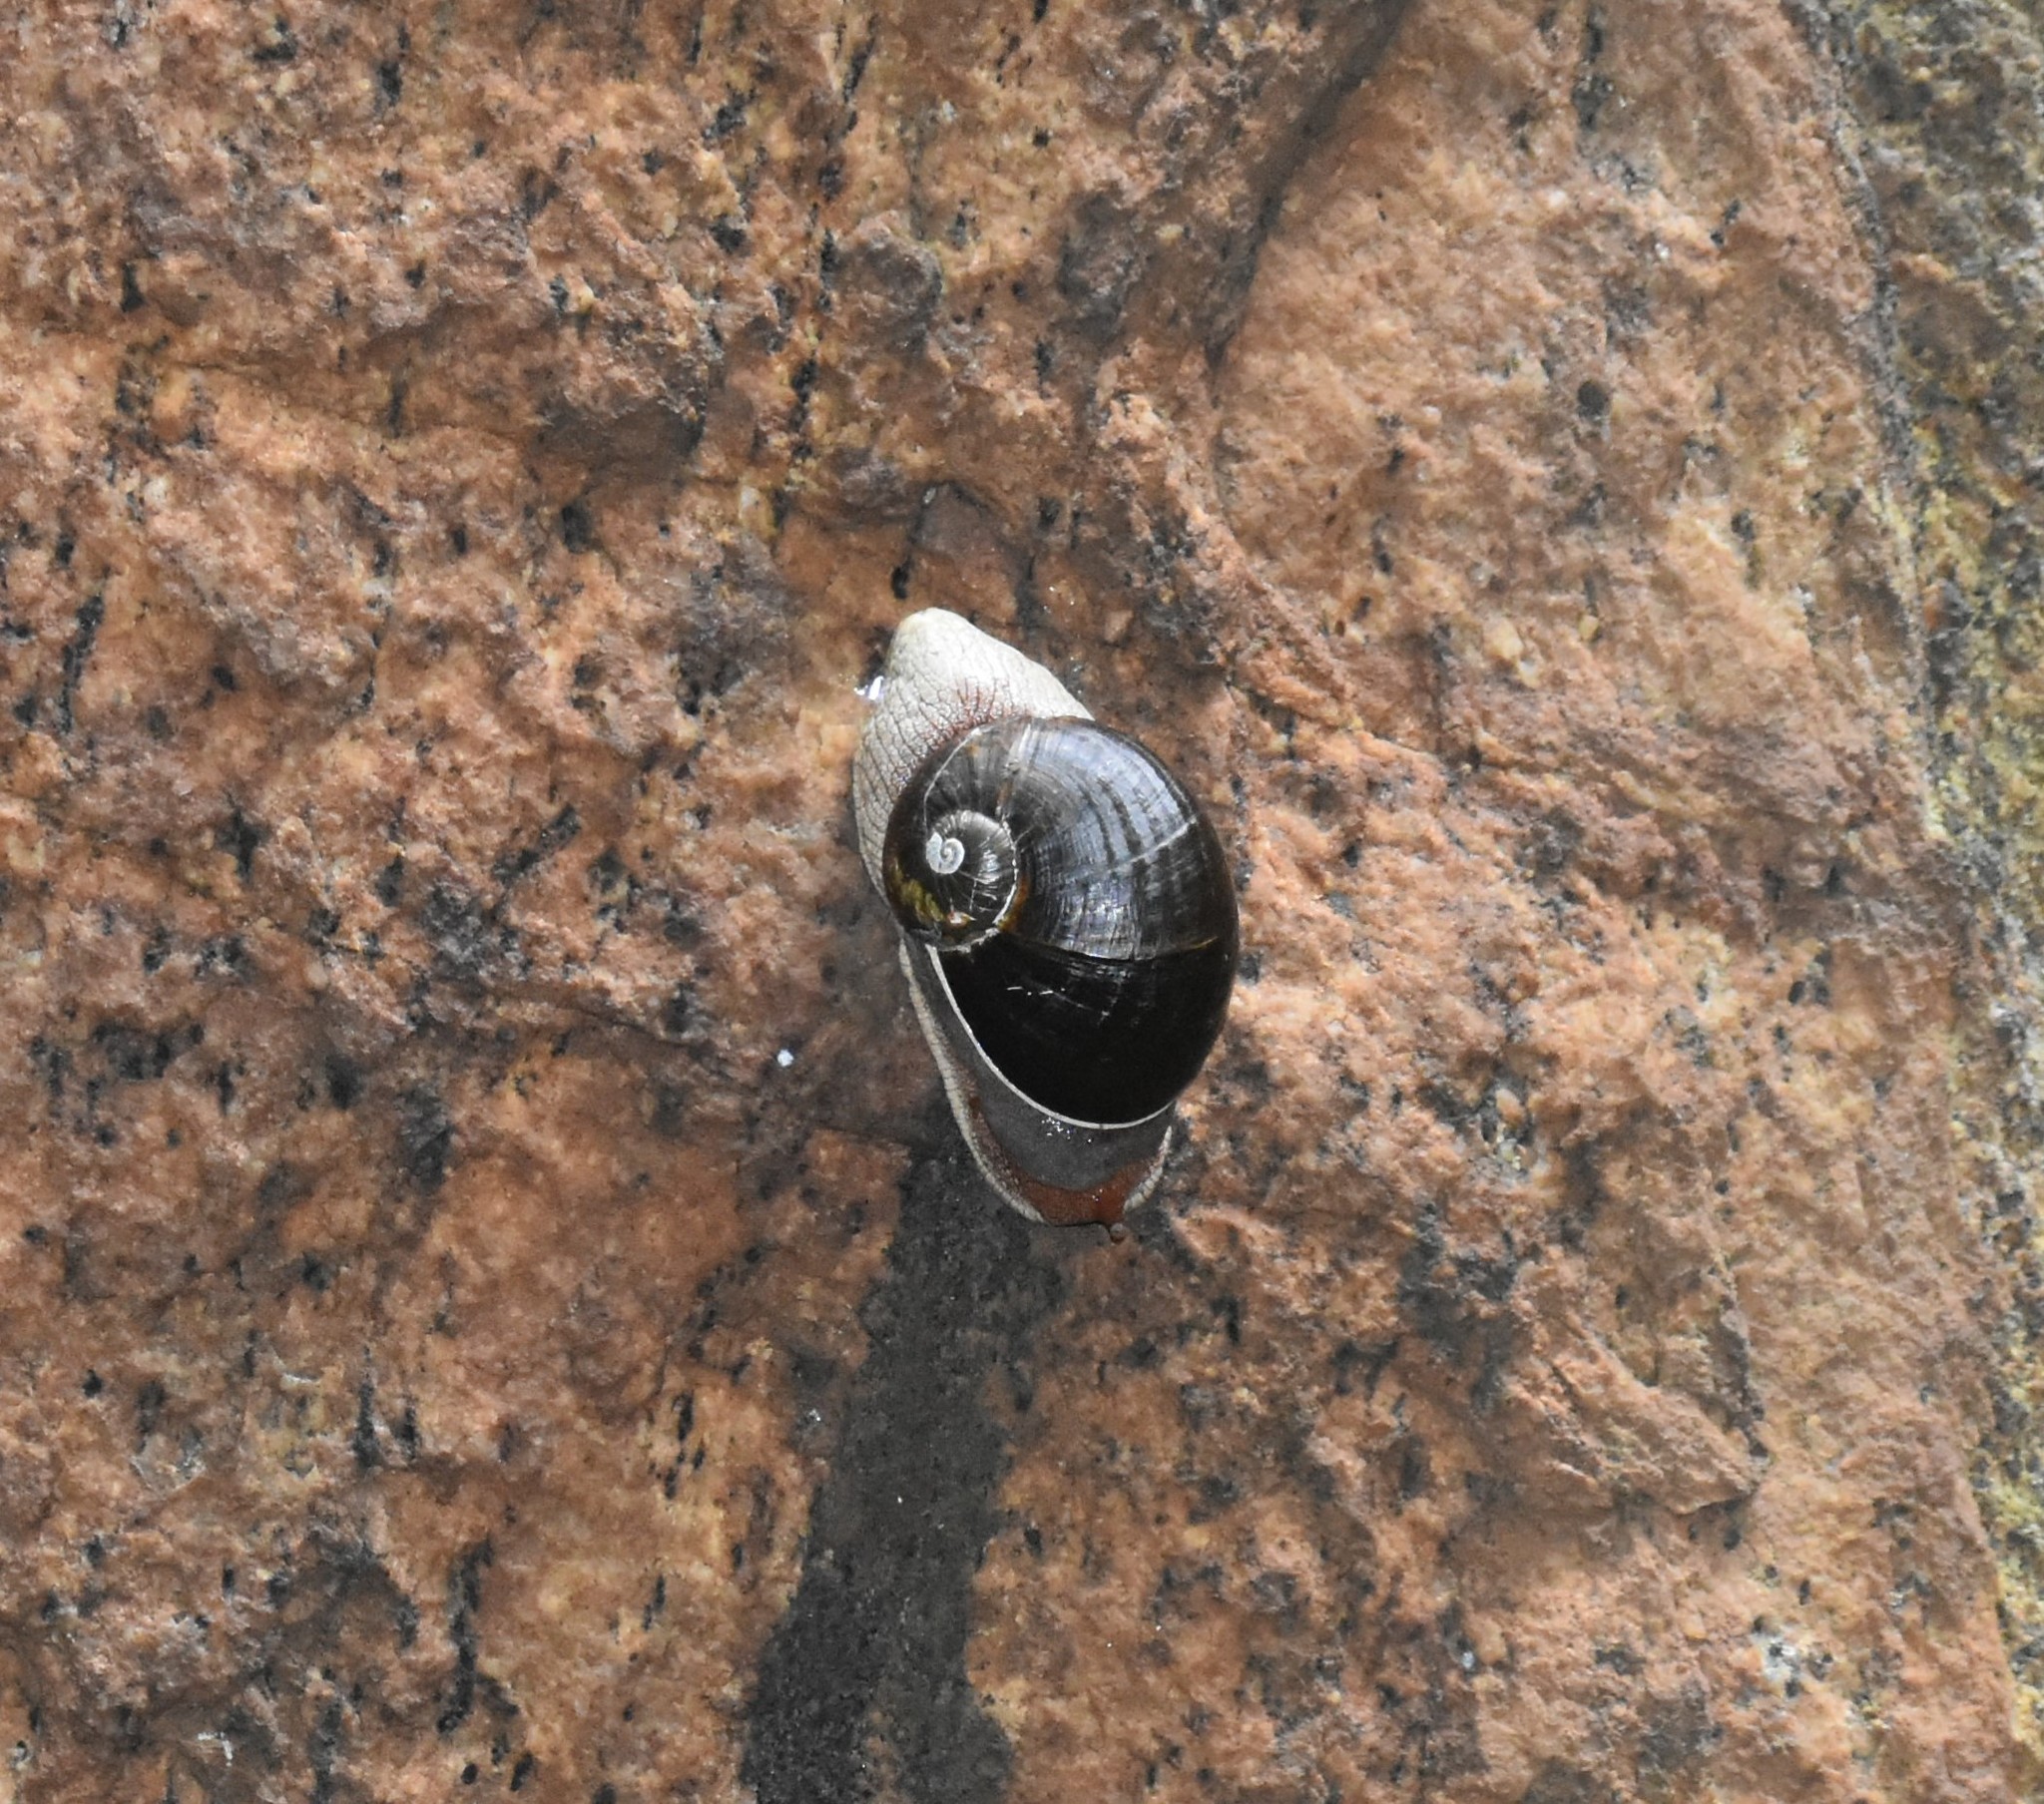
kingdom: Animalia
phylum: Mollusca
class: Gastropoda
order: Stylommatophora
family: Ariophantidae
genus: Indrella
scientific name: Indrella ampulla
